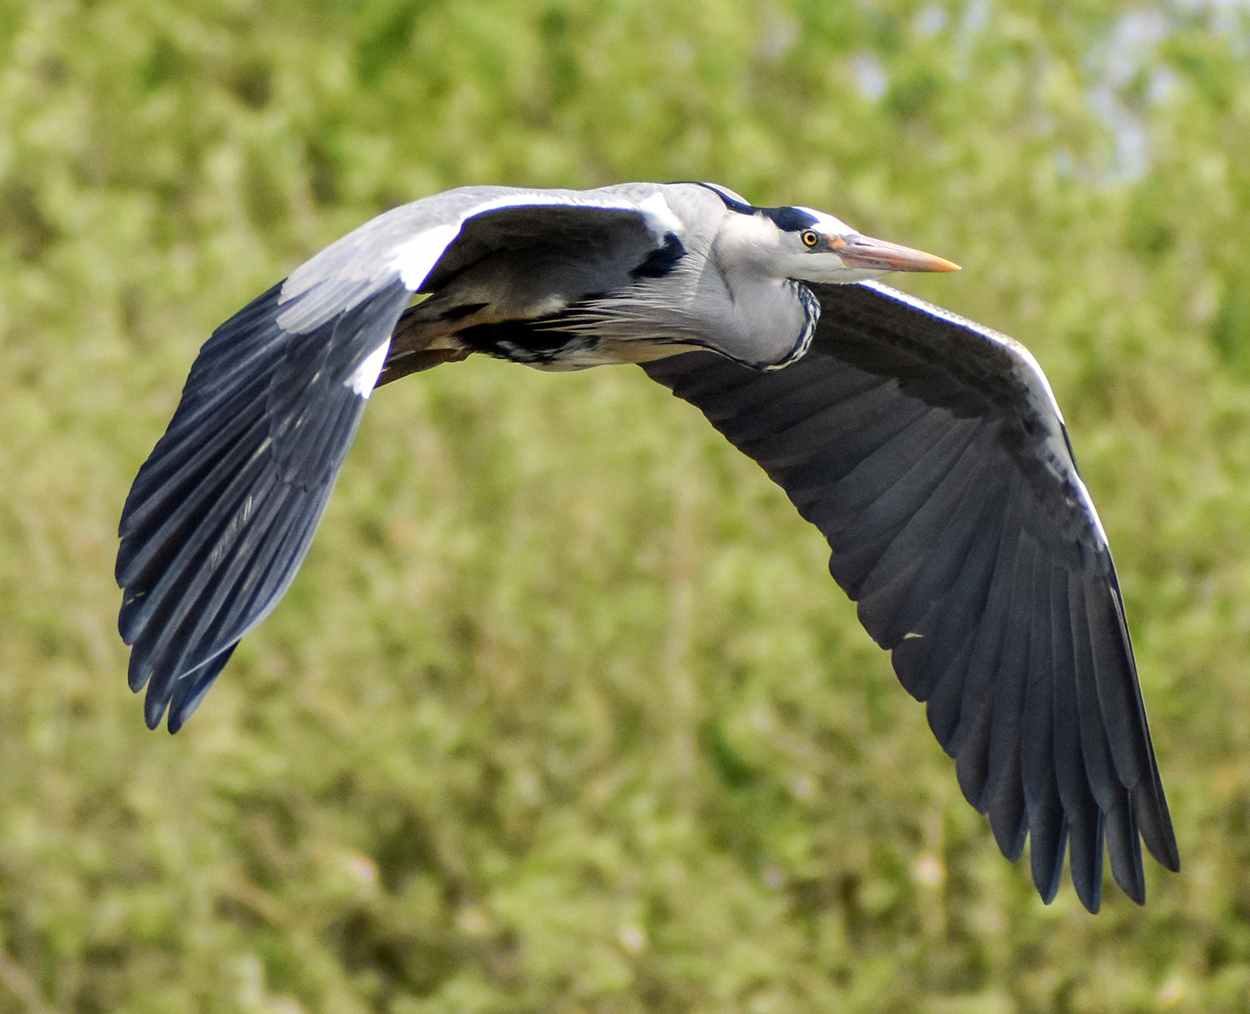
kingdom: Animalia
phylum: Chordata
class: Aves
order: Pelecaniformes
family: Ardeidae
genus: Ardea
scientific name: Ardea cinerea
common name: Grey heron
